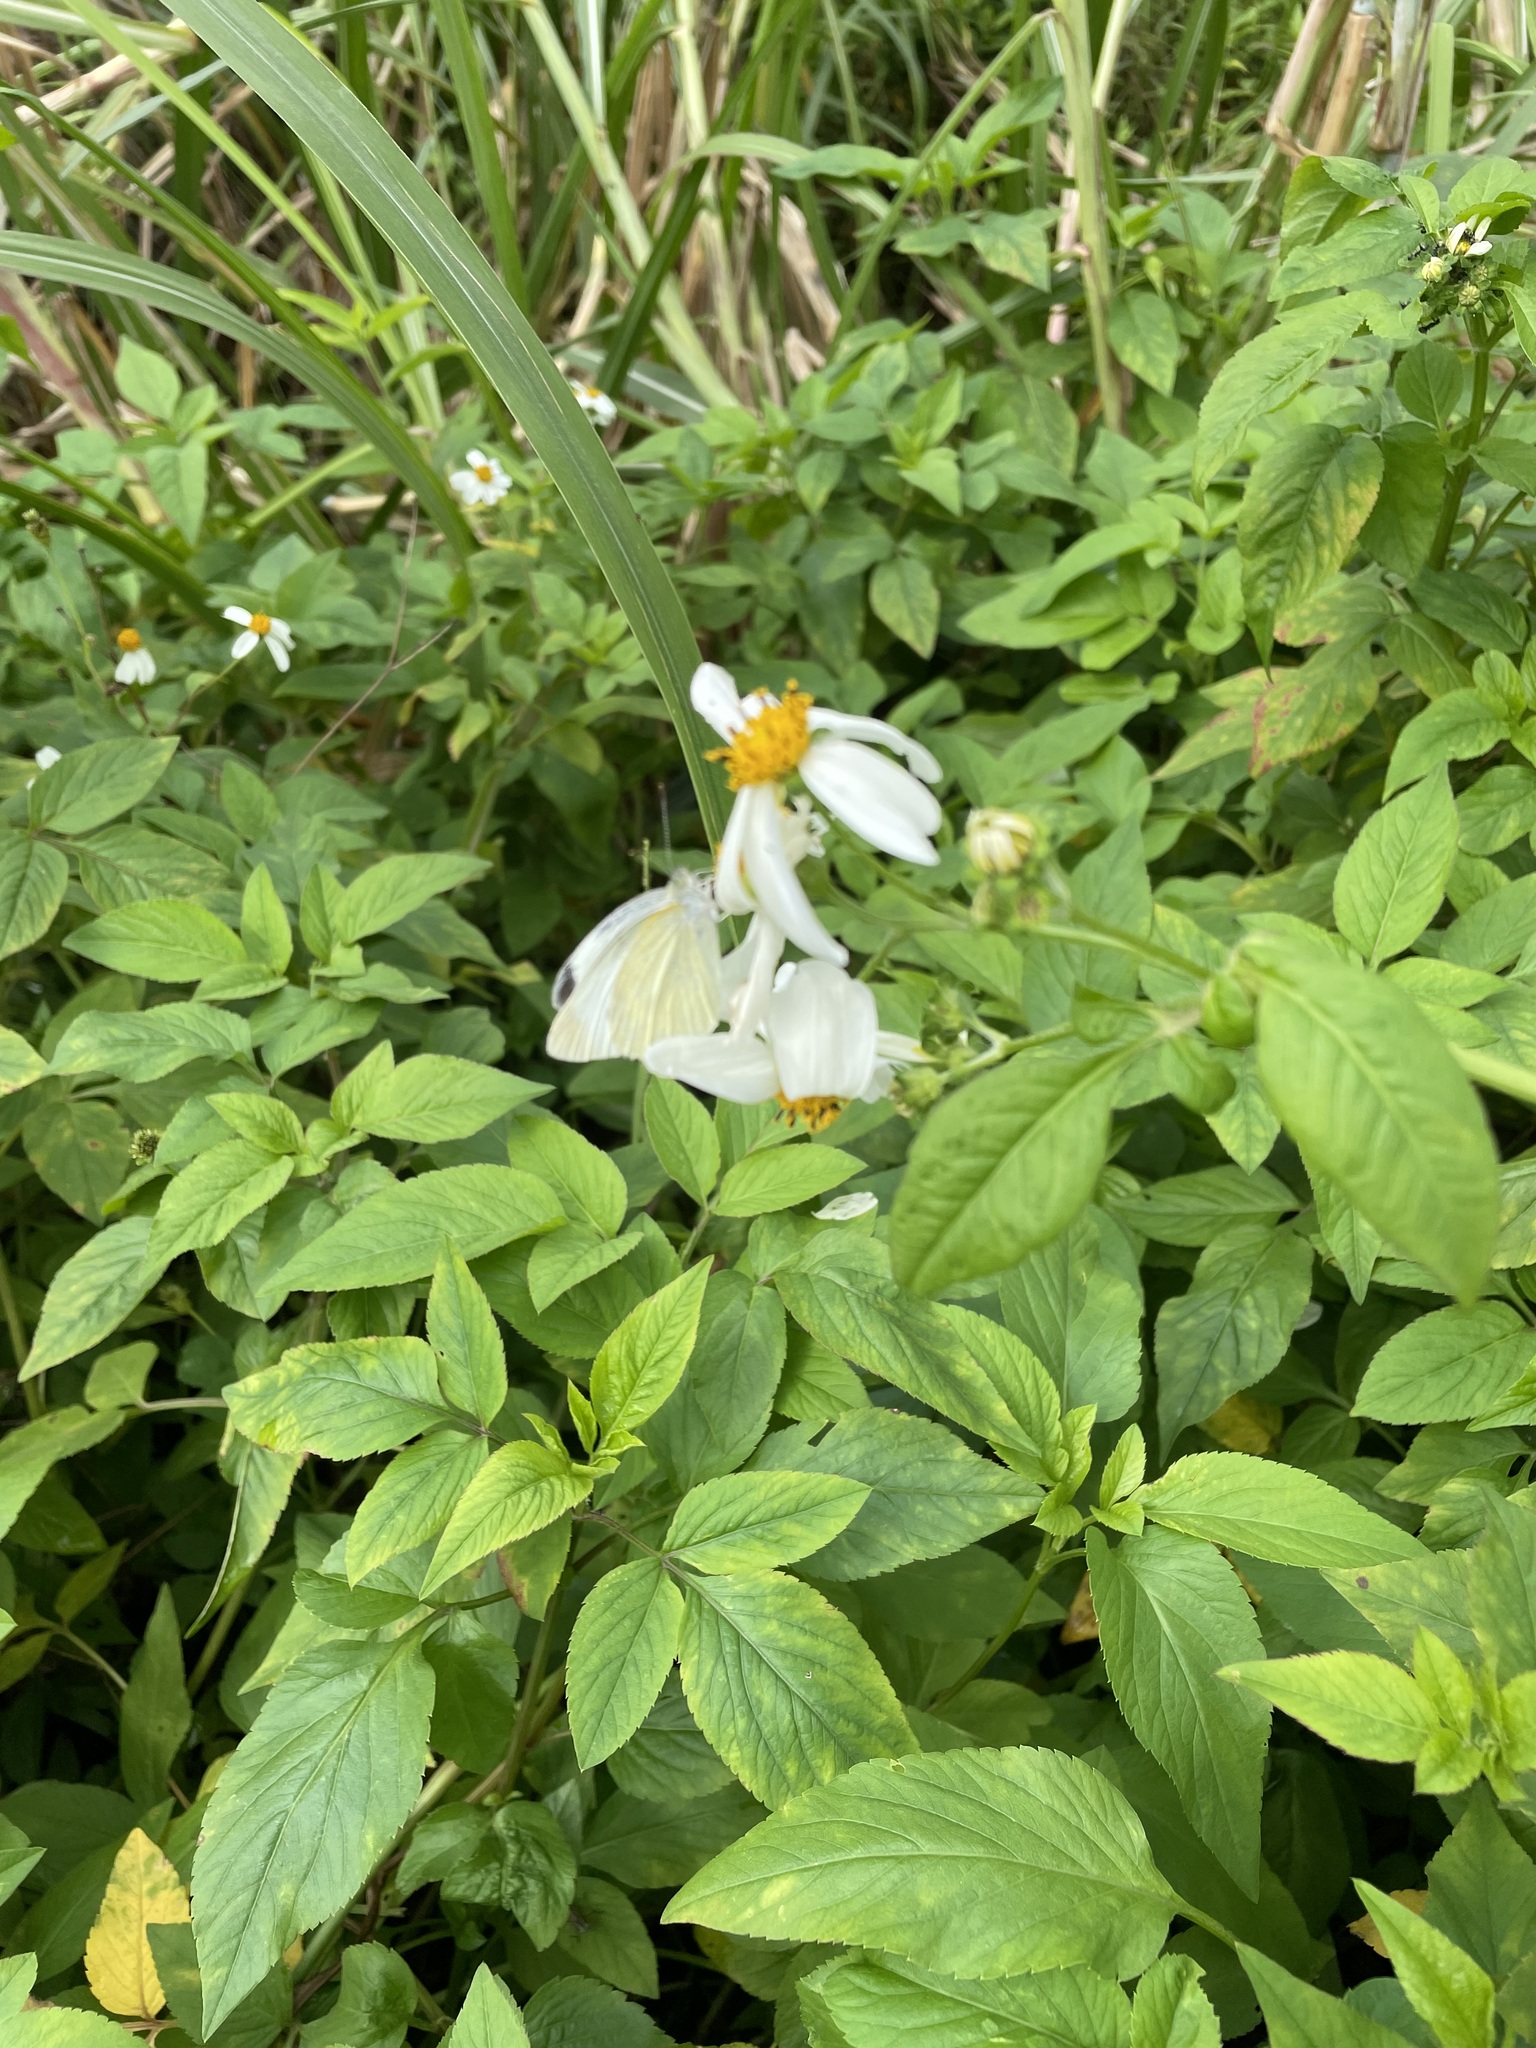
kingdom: Animalia
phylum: Arthropoda
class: Insecta
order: Lepidoptera
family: Pieridae
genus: Pieris
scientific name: Pieris rapae
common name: Small white
